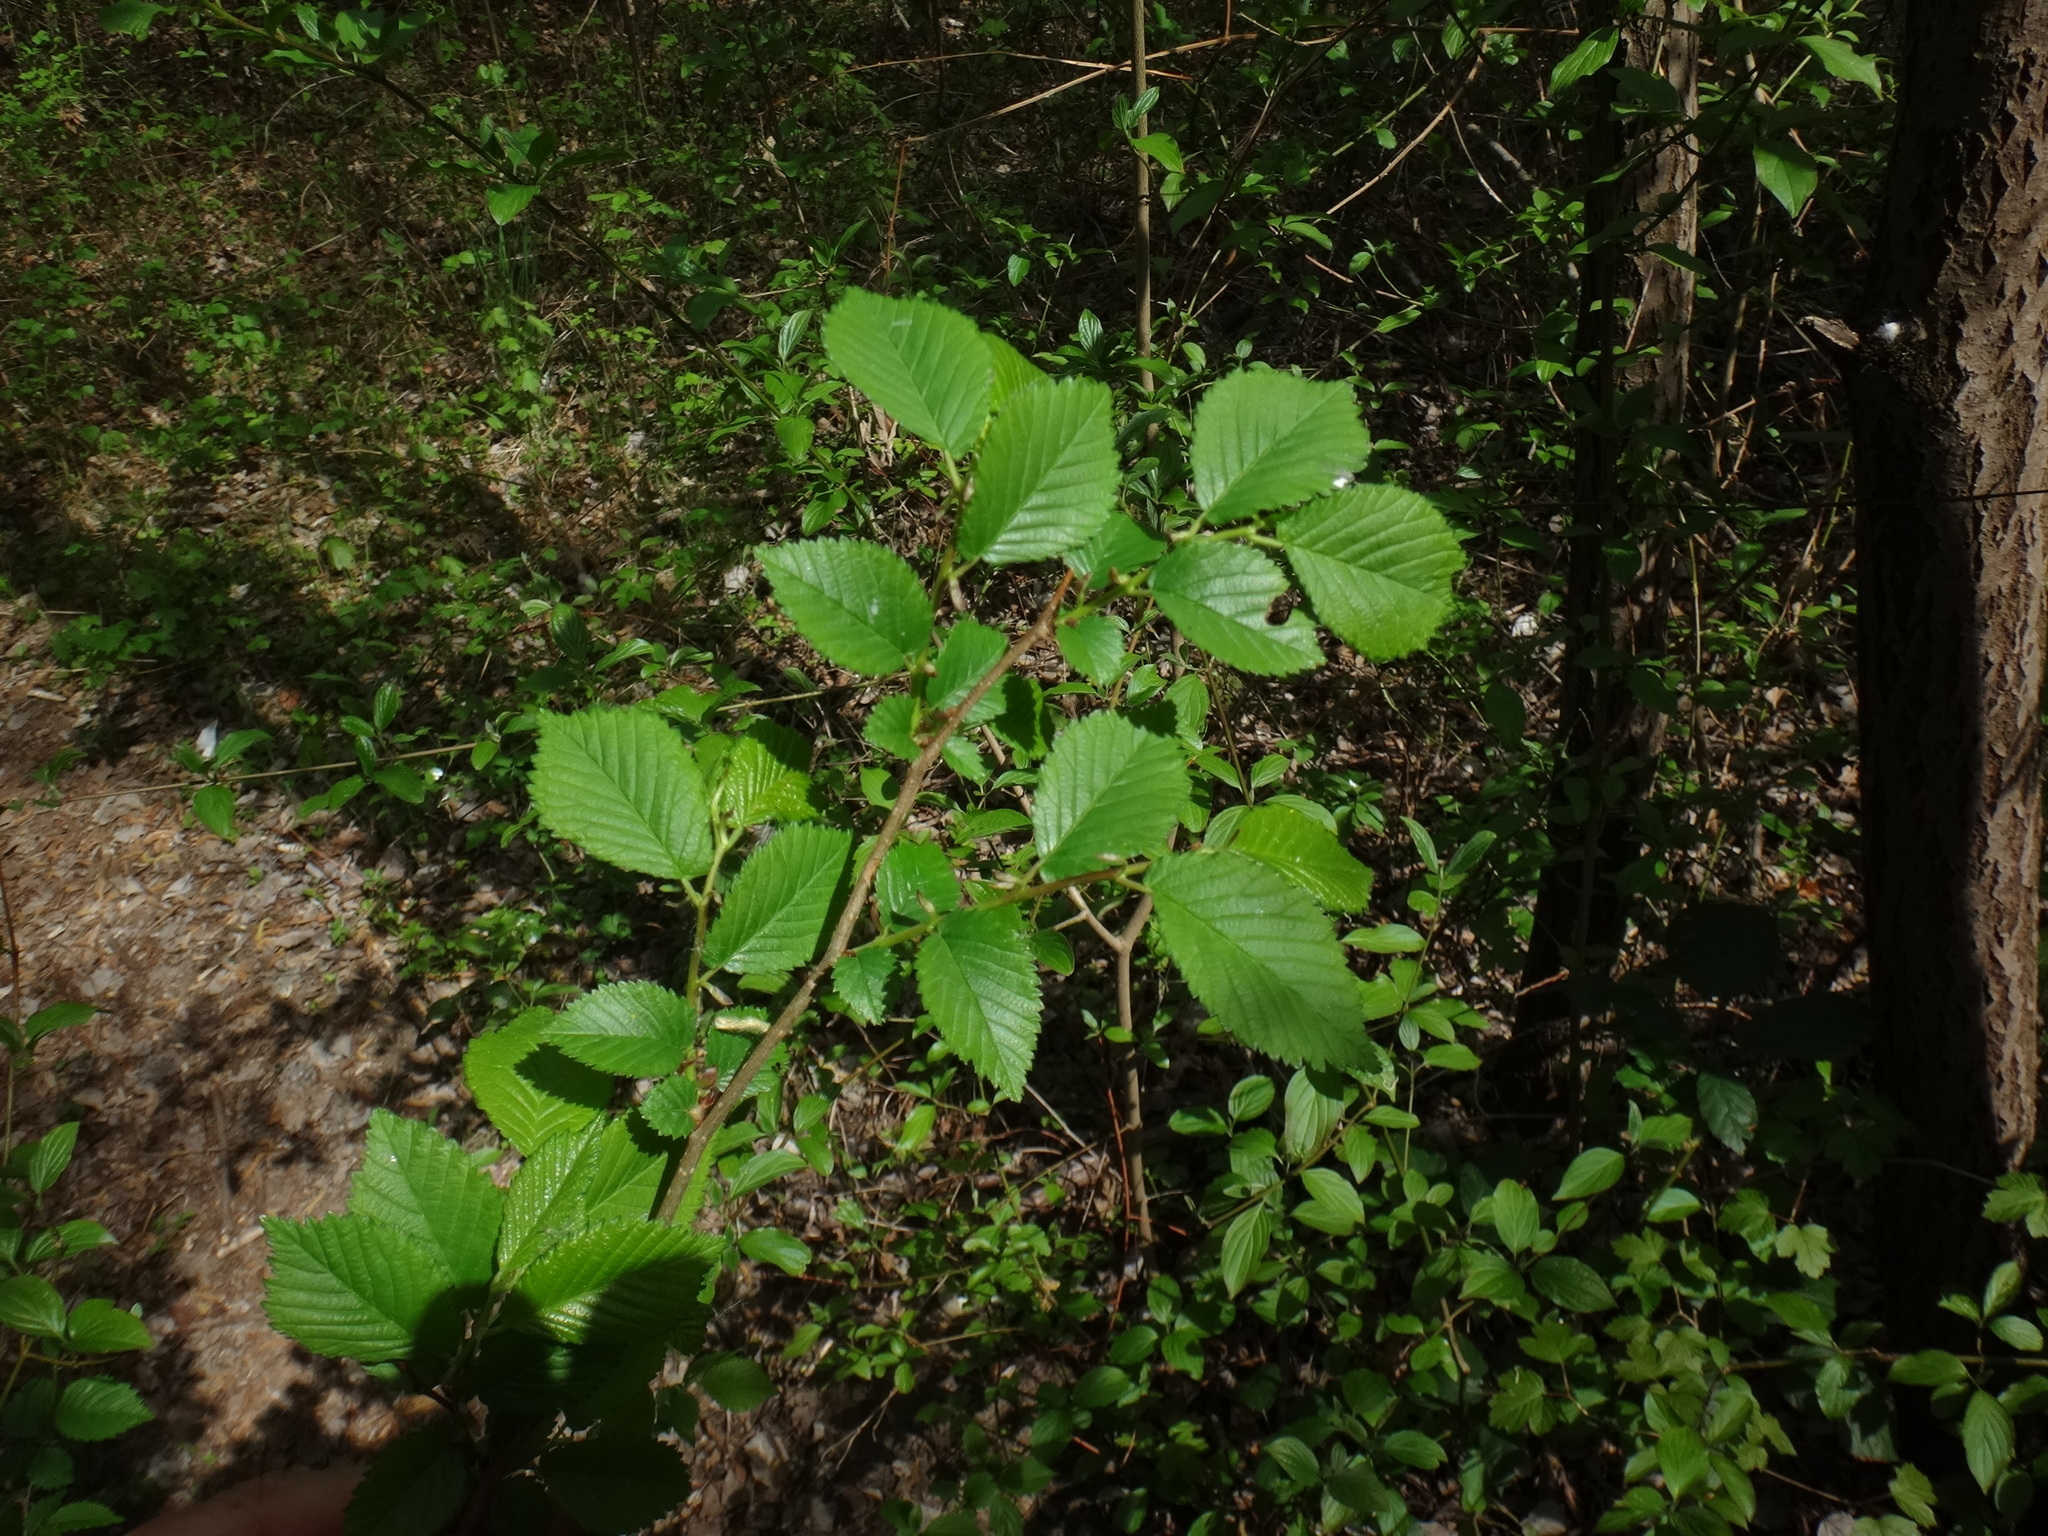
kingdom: Plantae
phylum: Tracheophyta
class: Magnoliopsida
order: Rosales
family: Ulmaceae
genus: Ulmus
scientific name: Ulmus laevis
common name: European white-elm
